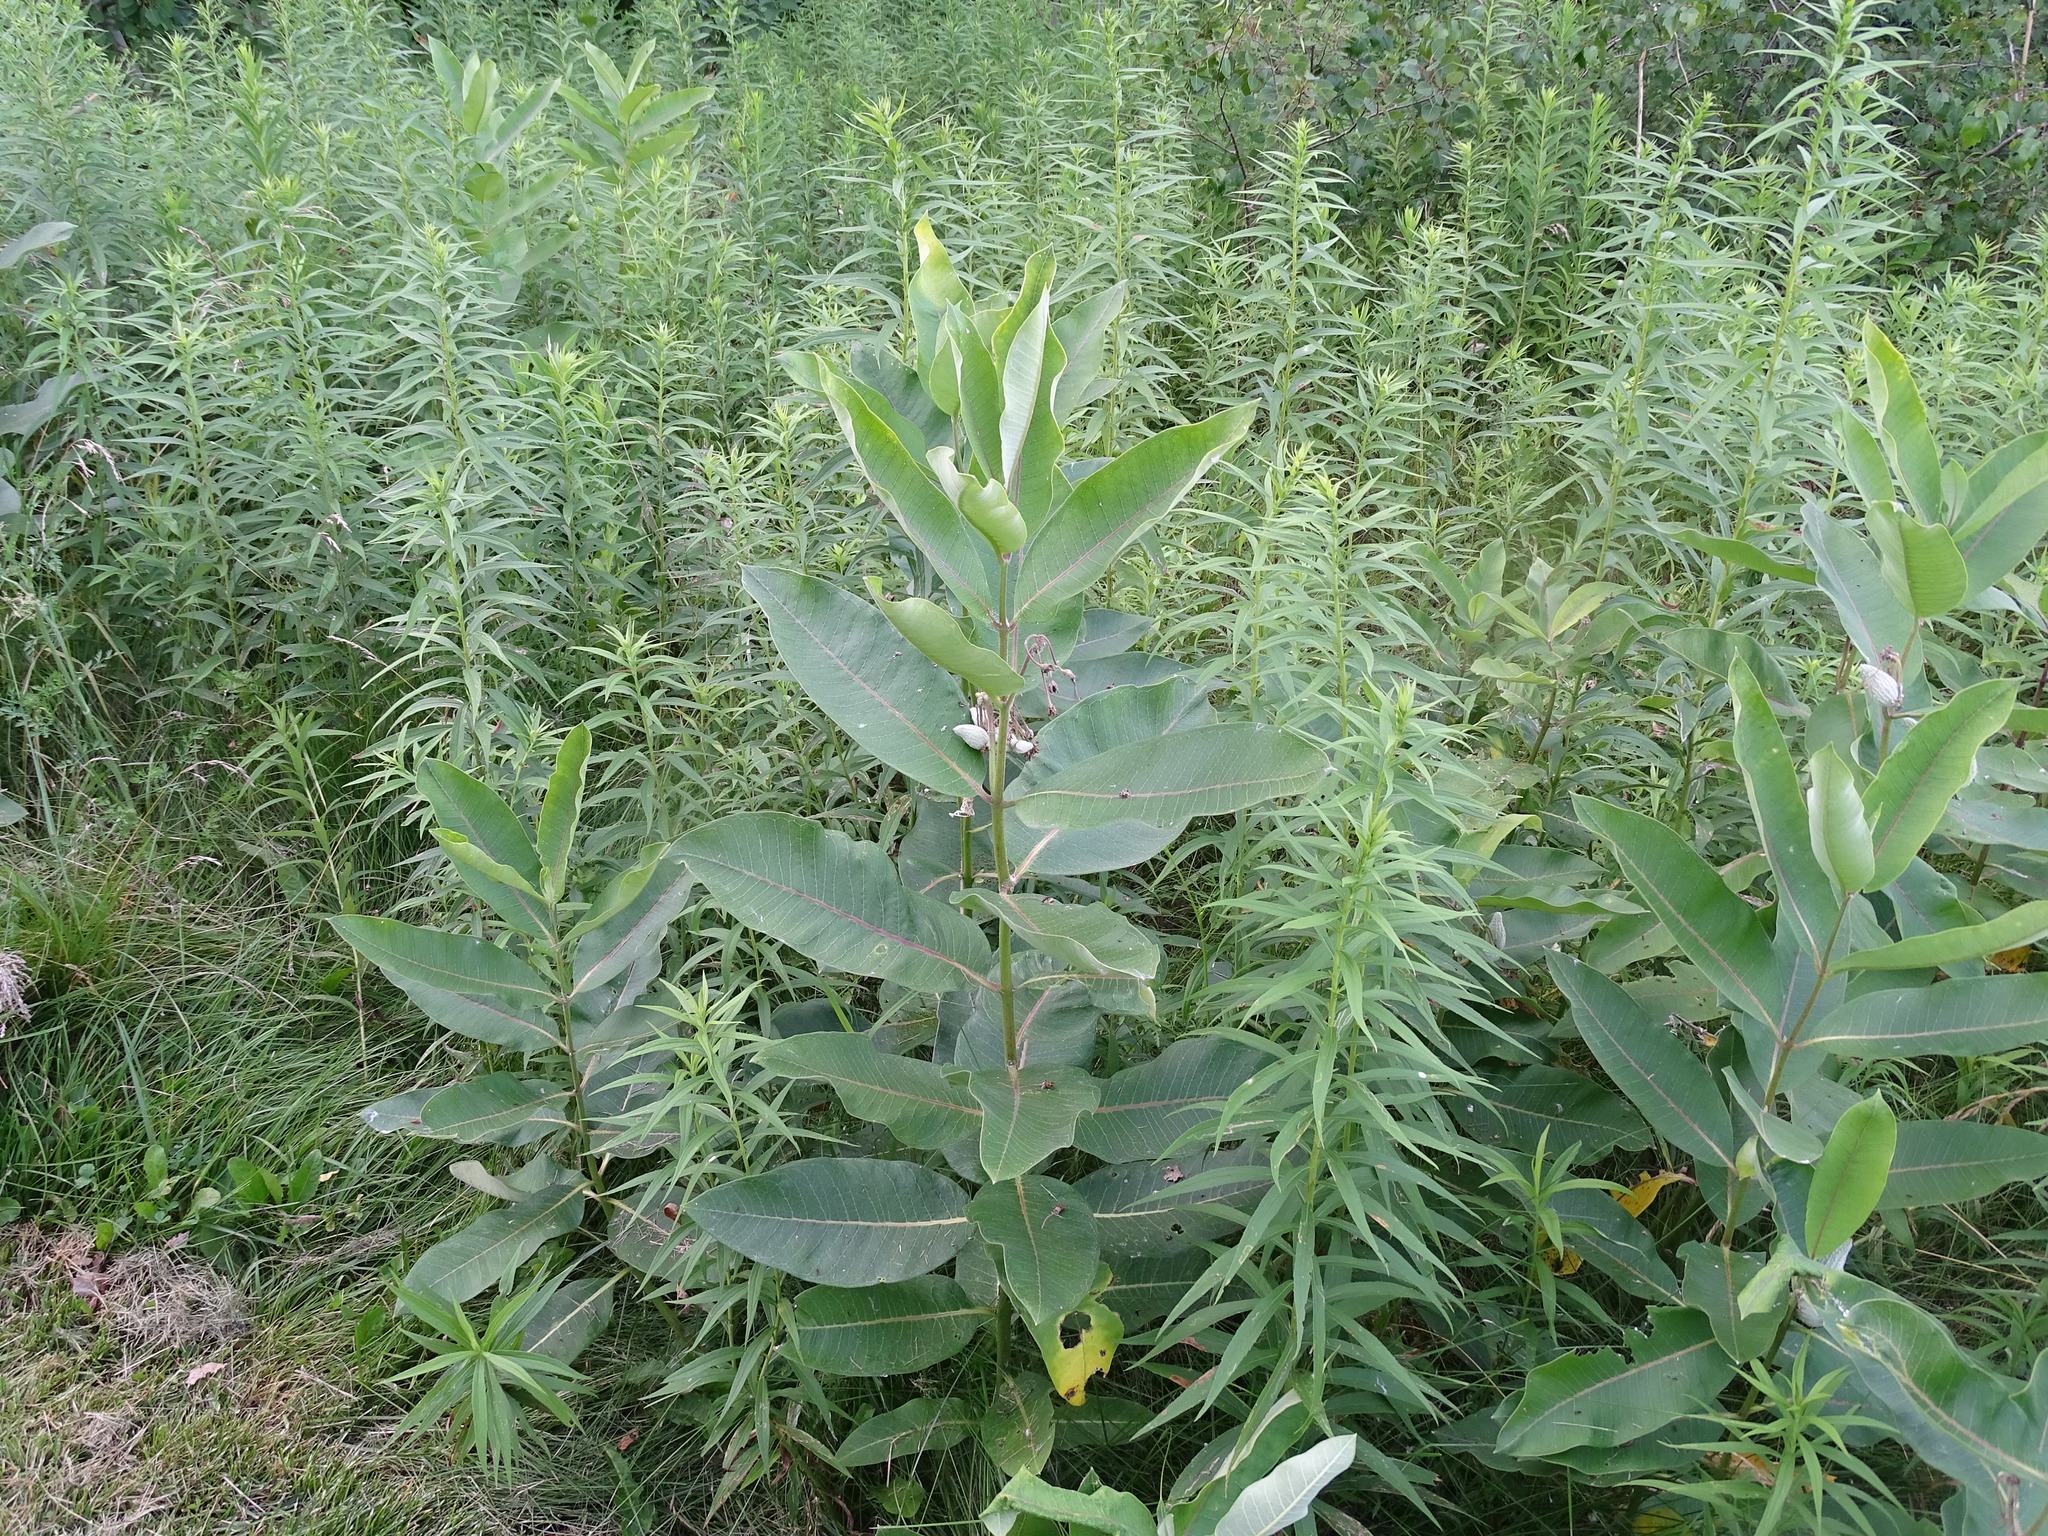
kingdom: Plantae
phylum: Tracheophyta
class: Magnoliopsida
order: Gentianales
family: Apocynaceae
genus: Asclepias
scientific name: Asclepias syriaca
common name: Common milkweed
